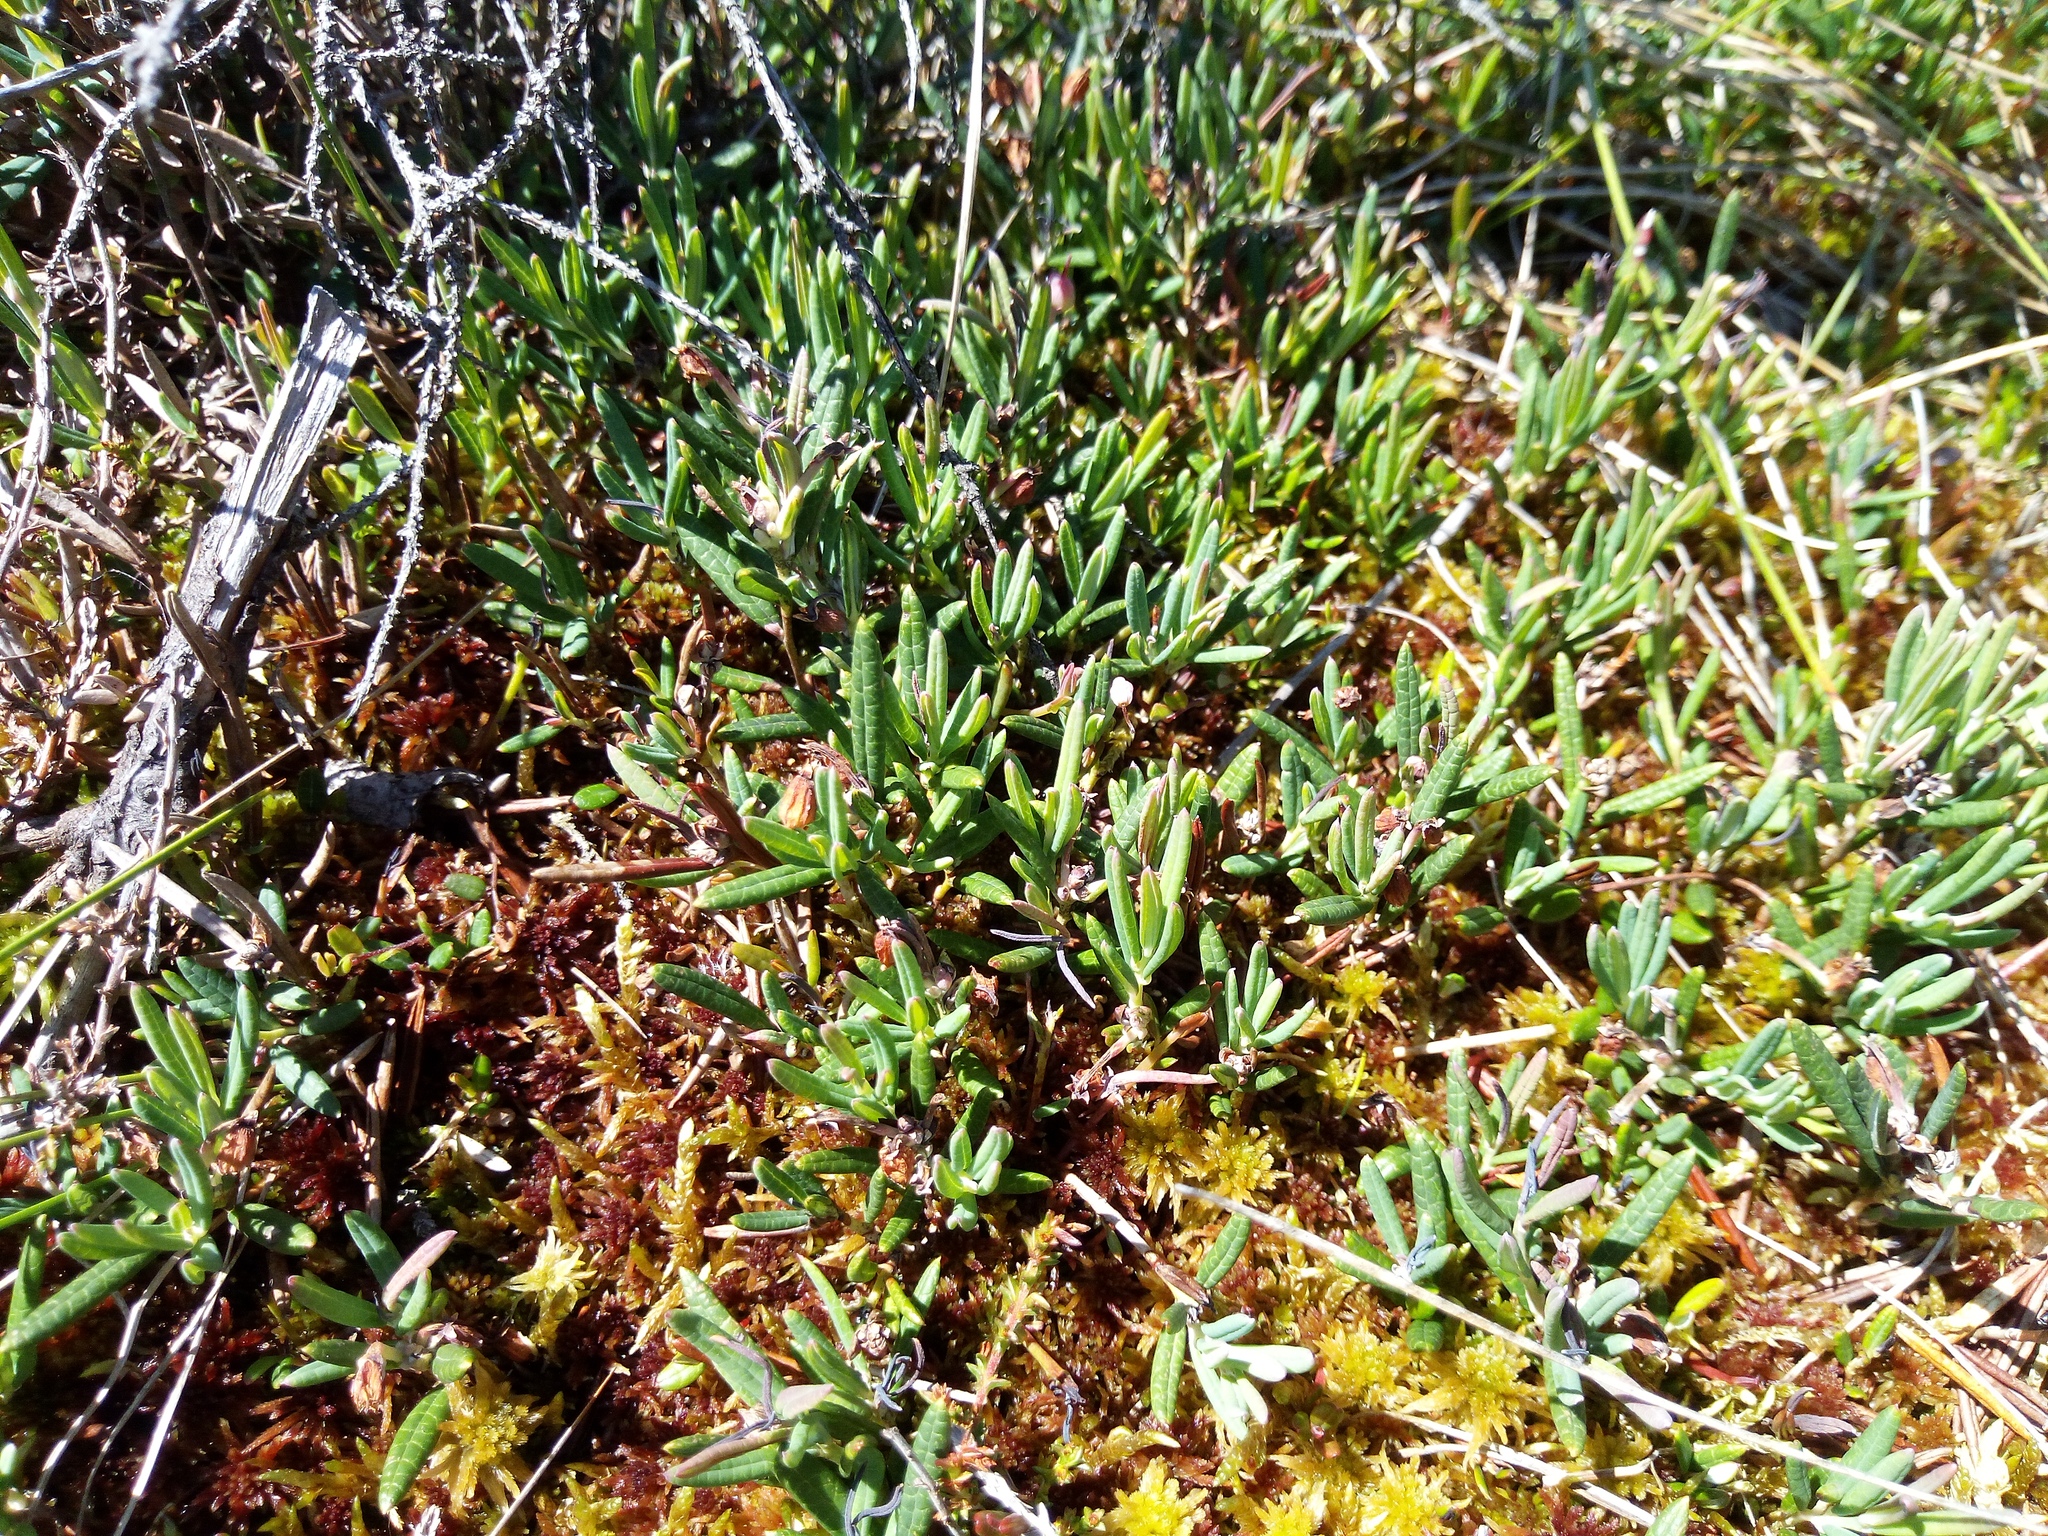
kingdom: Plantae
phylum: Tracheophyta
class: Magnoliopsida
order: Ericales
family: Ericaceae
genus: Andromeda
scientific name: Andromeda polifolia
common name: Bog-rosemary
